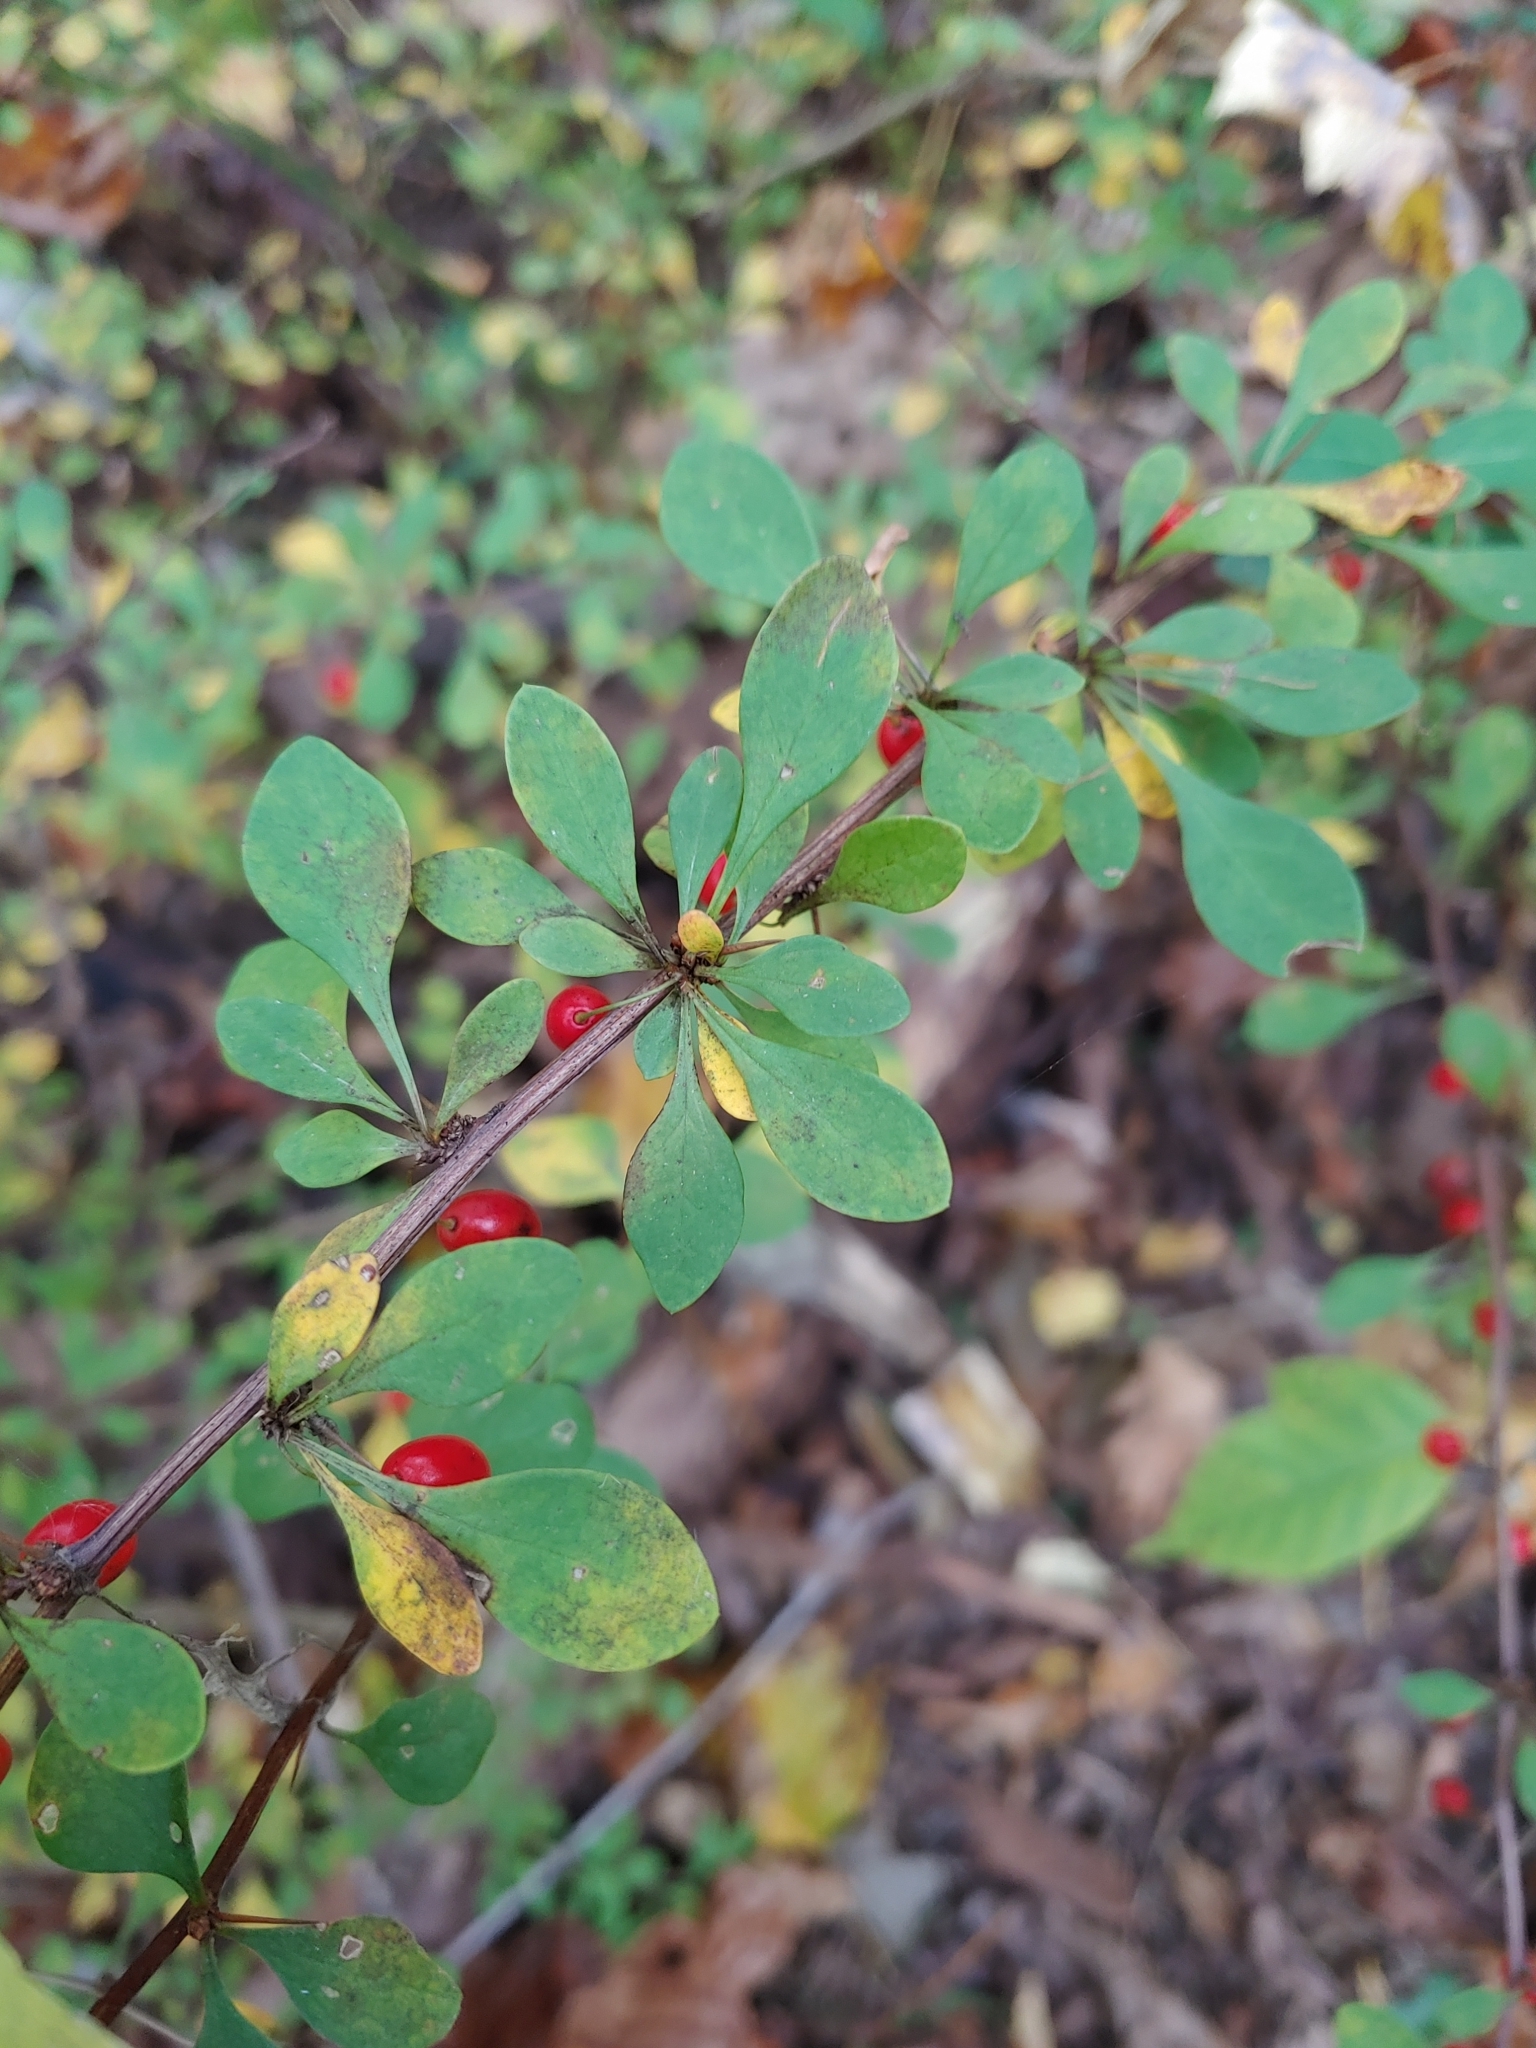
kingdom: Plantae
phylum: Tracheophyta
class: Magnoliopsida
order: Ranunculales
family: Berberidaceae
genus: Berberis
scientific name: Berberis thunbergii
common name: Japanese barberry
